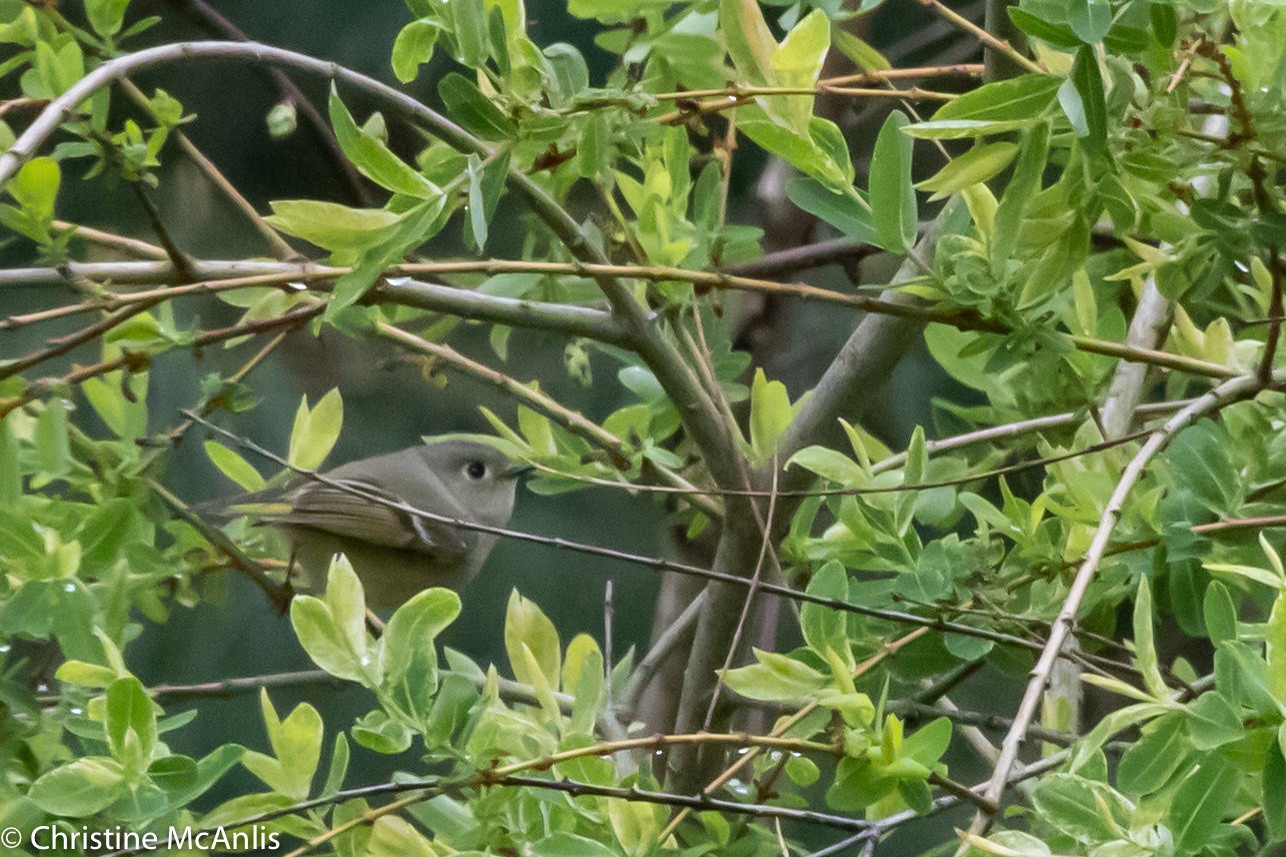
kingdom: Animalia
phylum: Chordata
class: Aves
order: Passeriformes
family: Regulidae
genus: Regulus
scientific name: Regulus calendula
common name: Ruby-crowned kinglet
